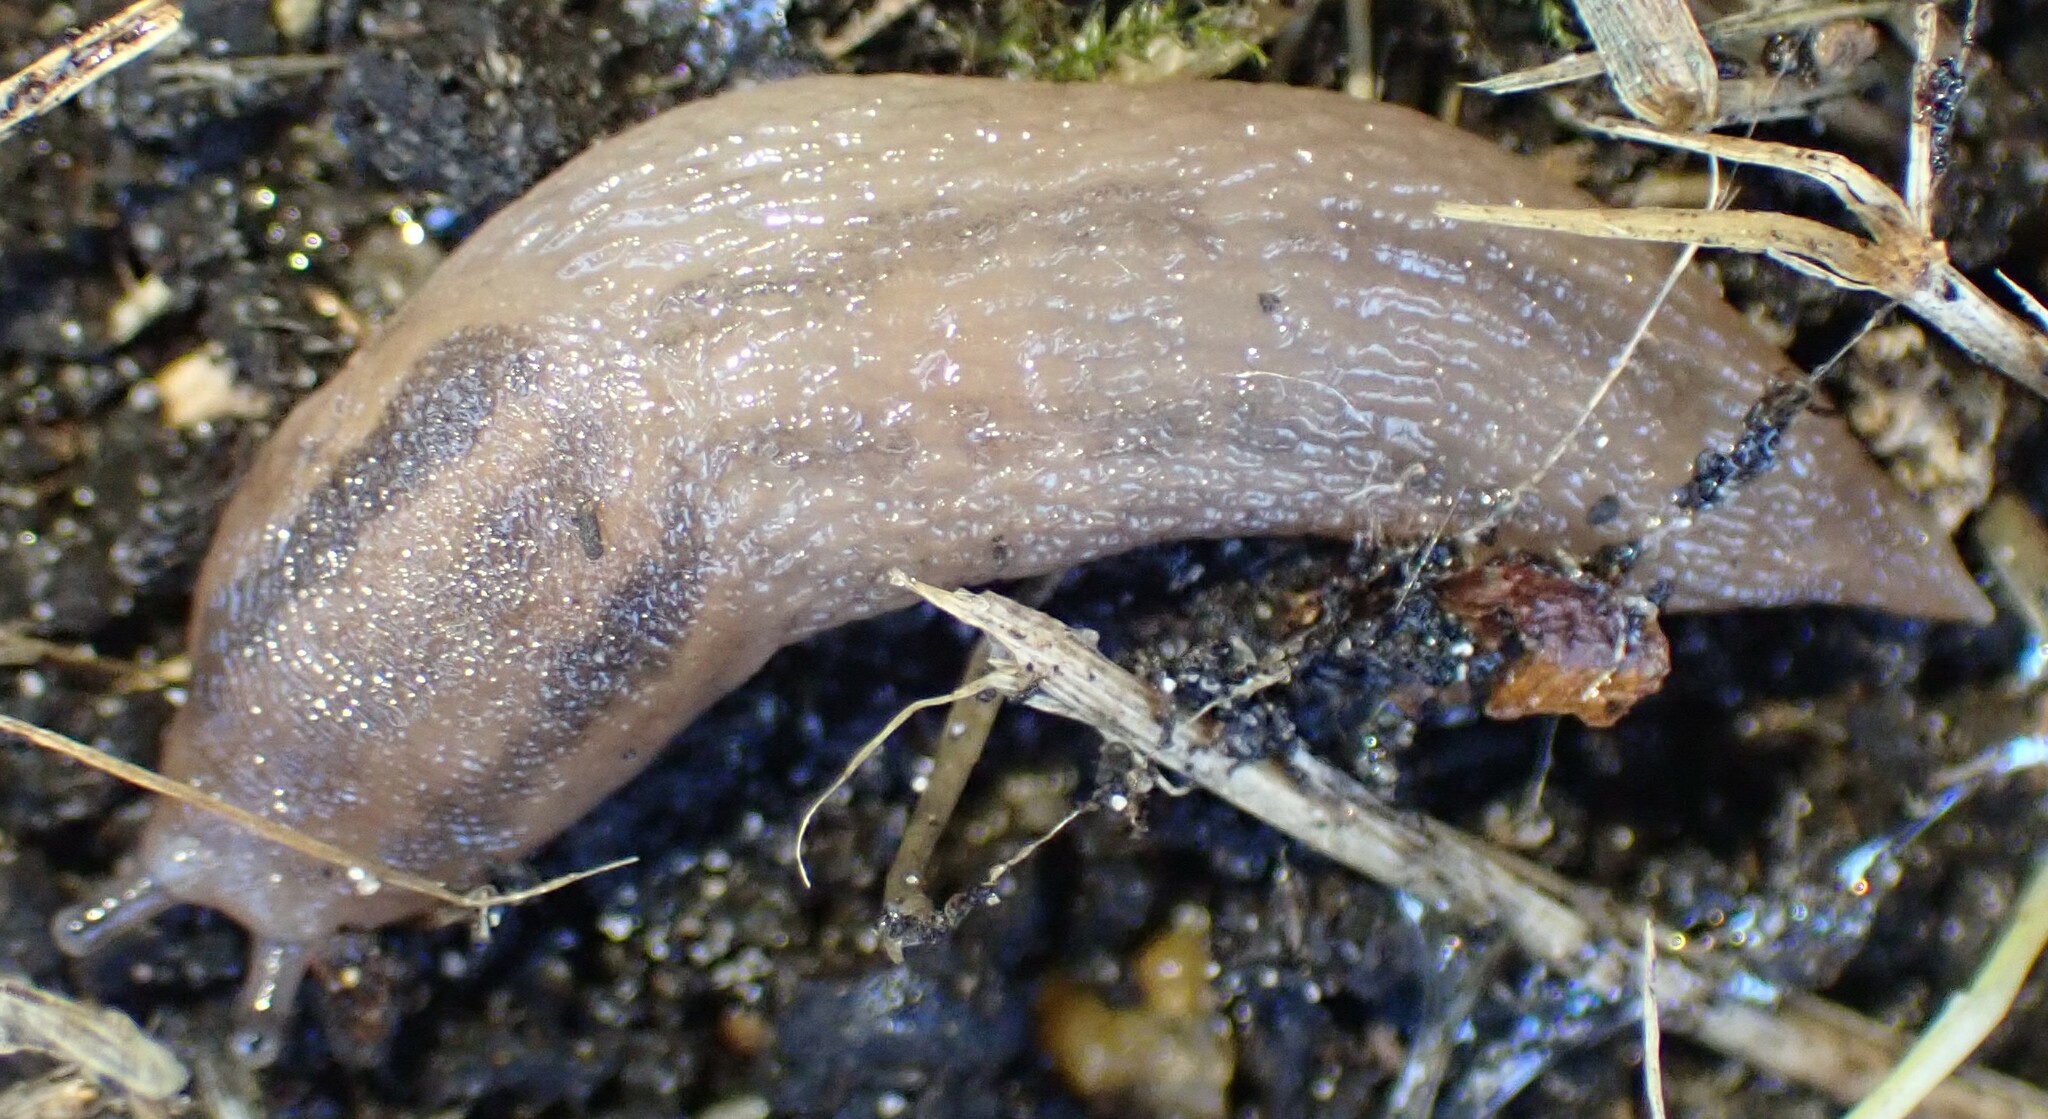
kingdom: Animalia
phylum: Mollusca
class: Gastropoda
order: Stylommatophora
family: Limacidae
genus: Ambigolimax
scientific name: Ambigolimax
